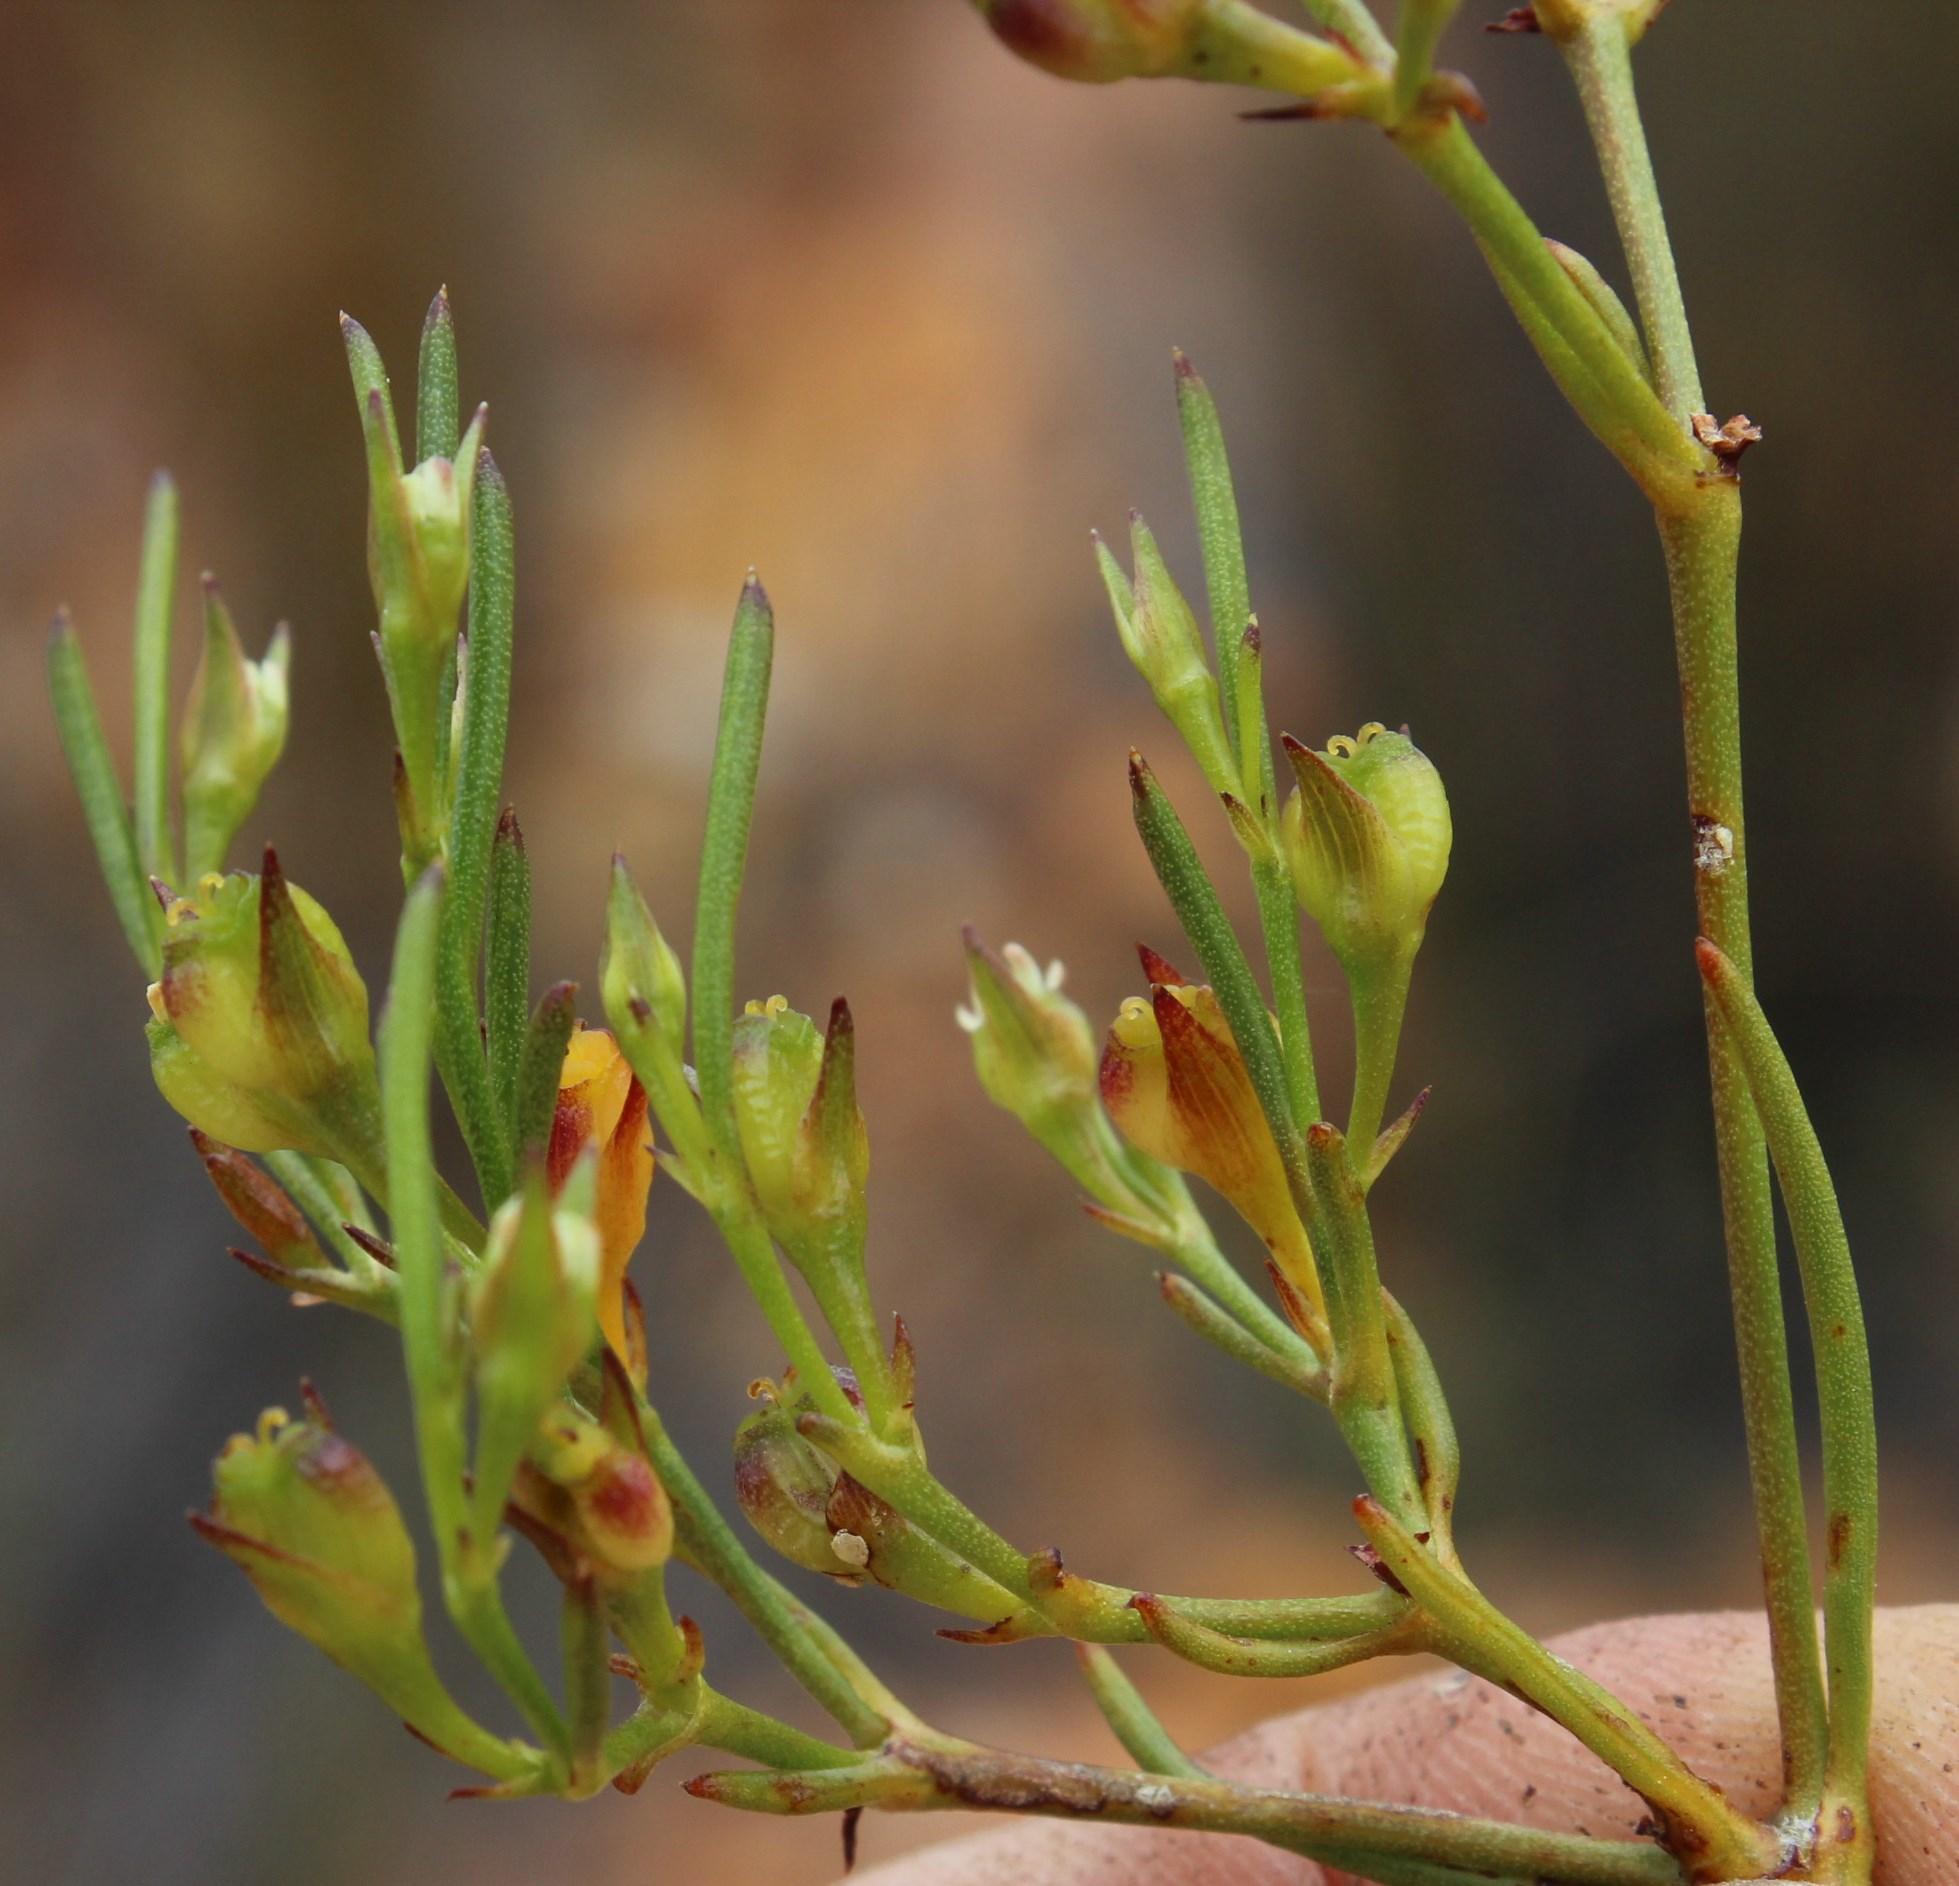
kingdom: Plantae
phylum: Tracheophyta
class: Magnoliopsida
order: Apiales
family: Apiaceae
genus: Centella
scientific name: Centella thesioides
